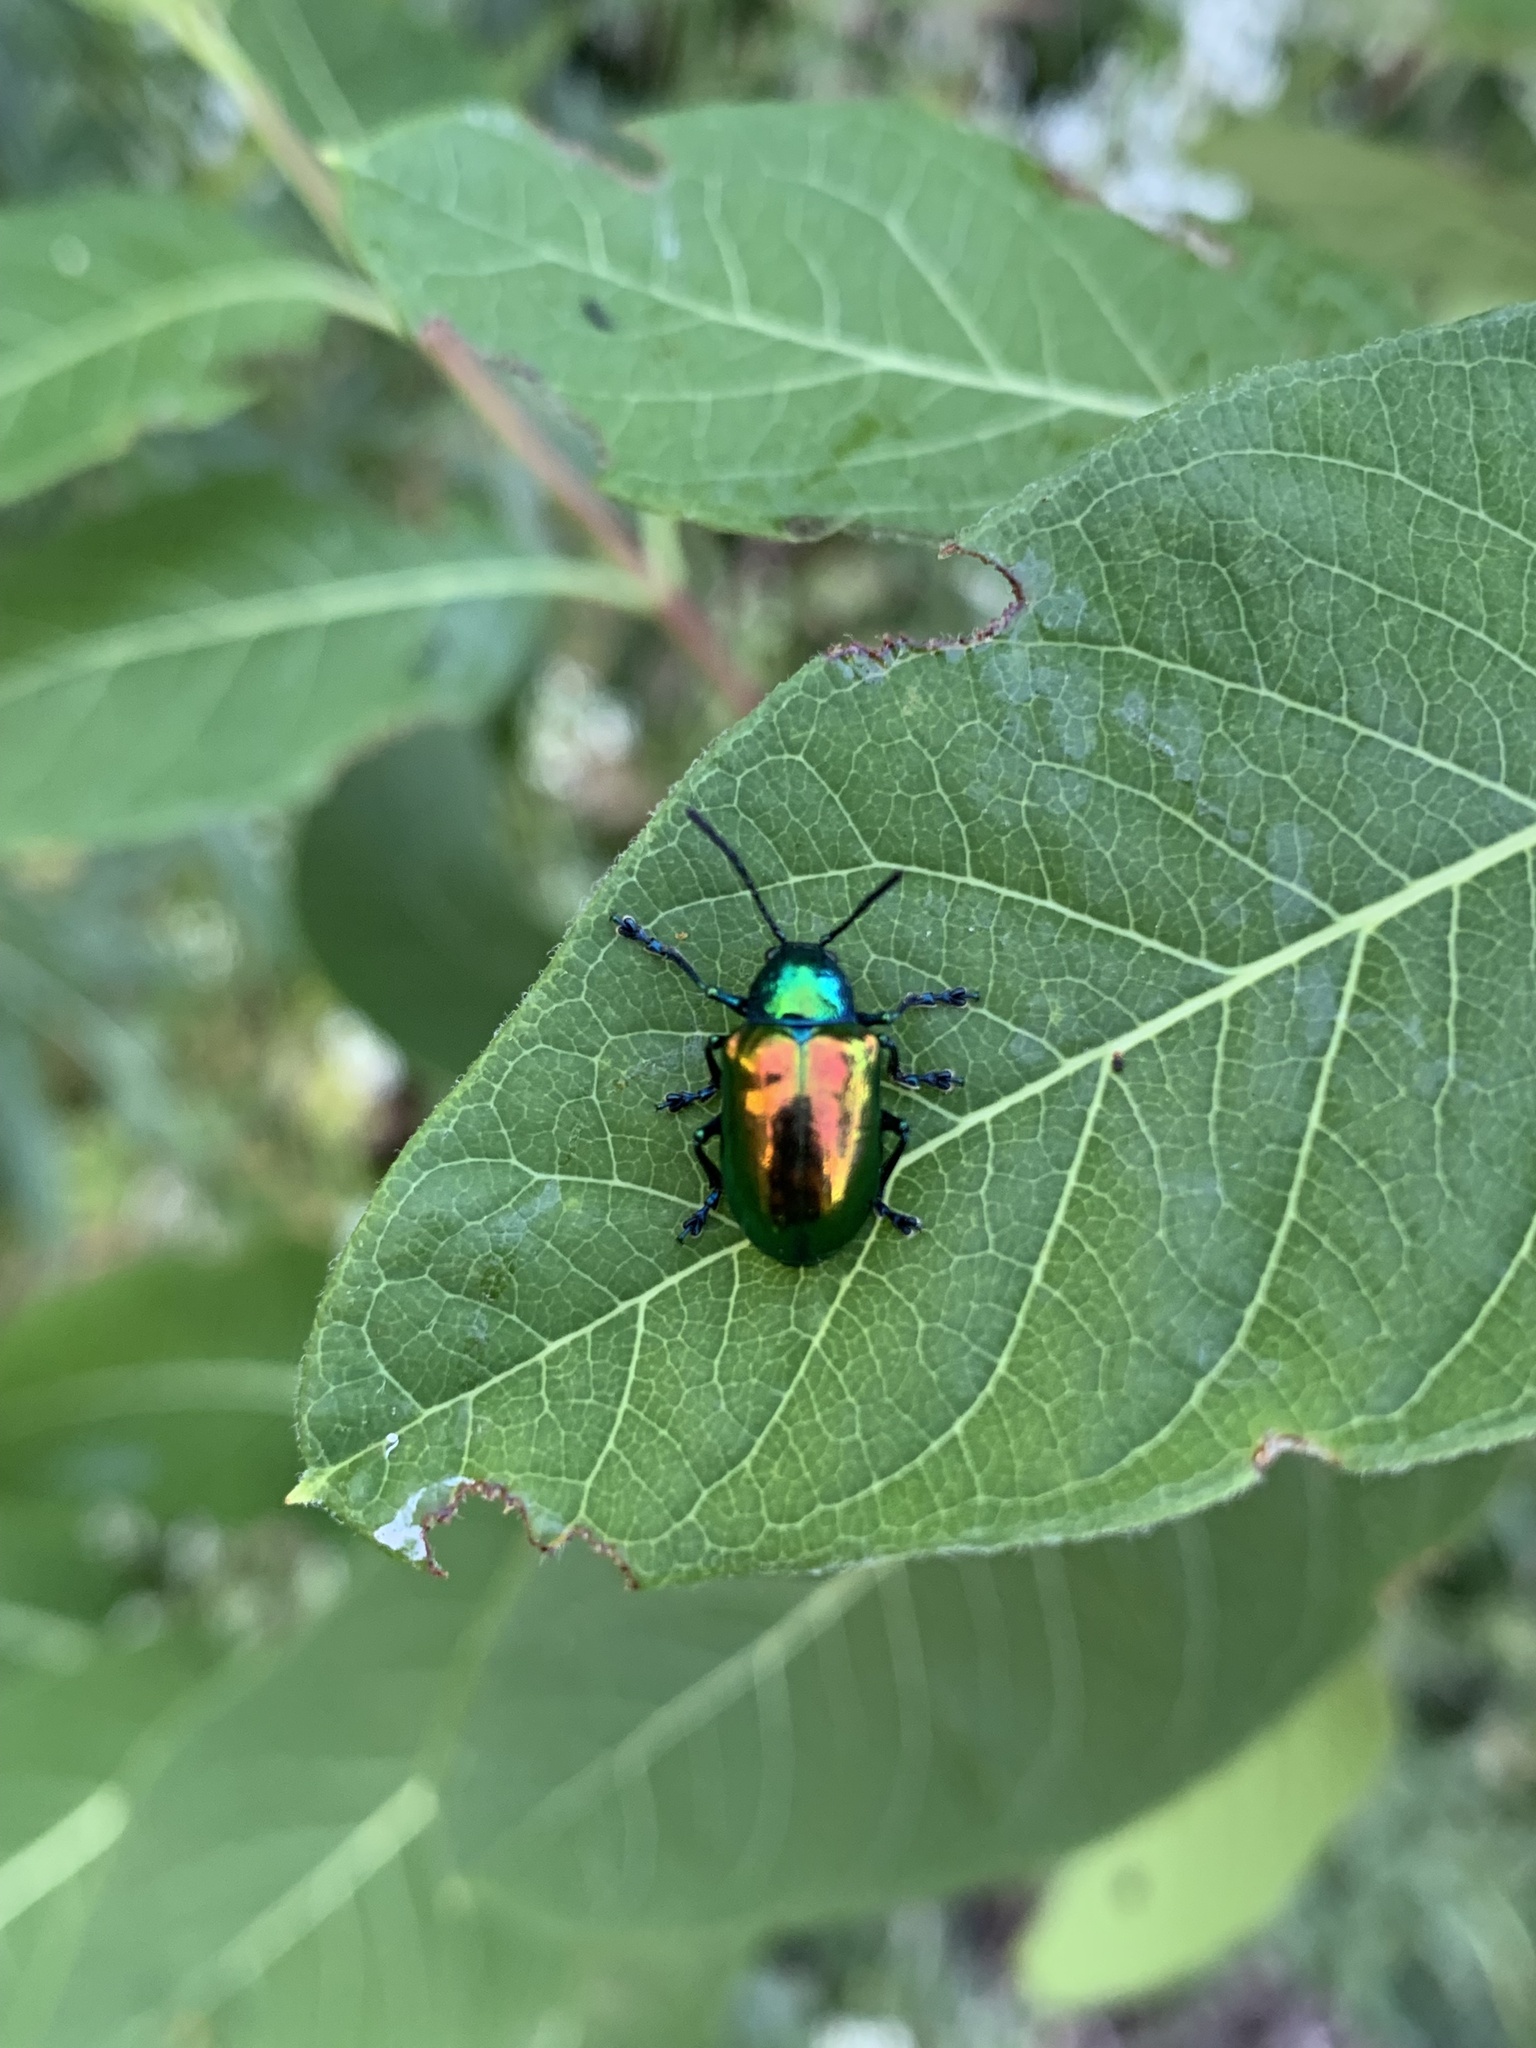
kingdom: Animalia
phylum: Arthropoda
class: Insecta
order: Coleoptera
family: Chrysomelidae
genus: Chrysochus
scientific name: Chrysochus auratus
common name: Dogbane leaf beetle
